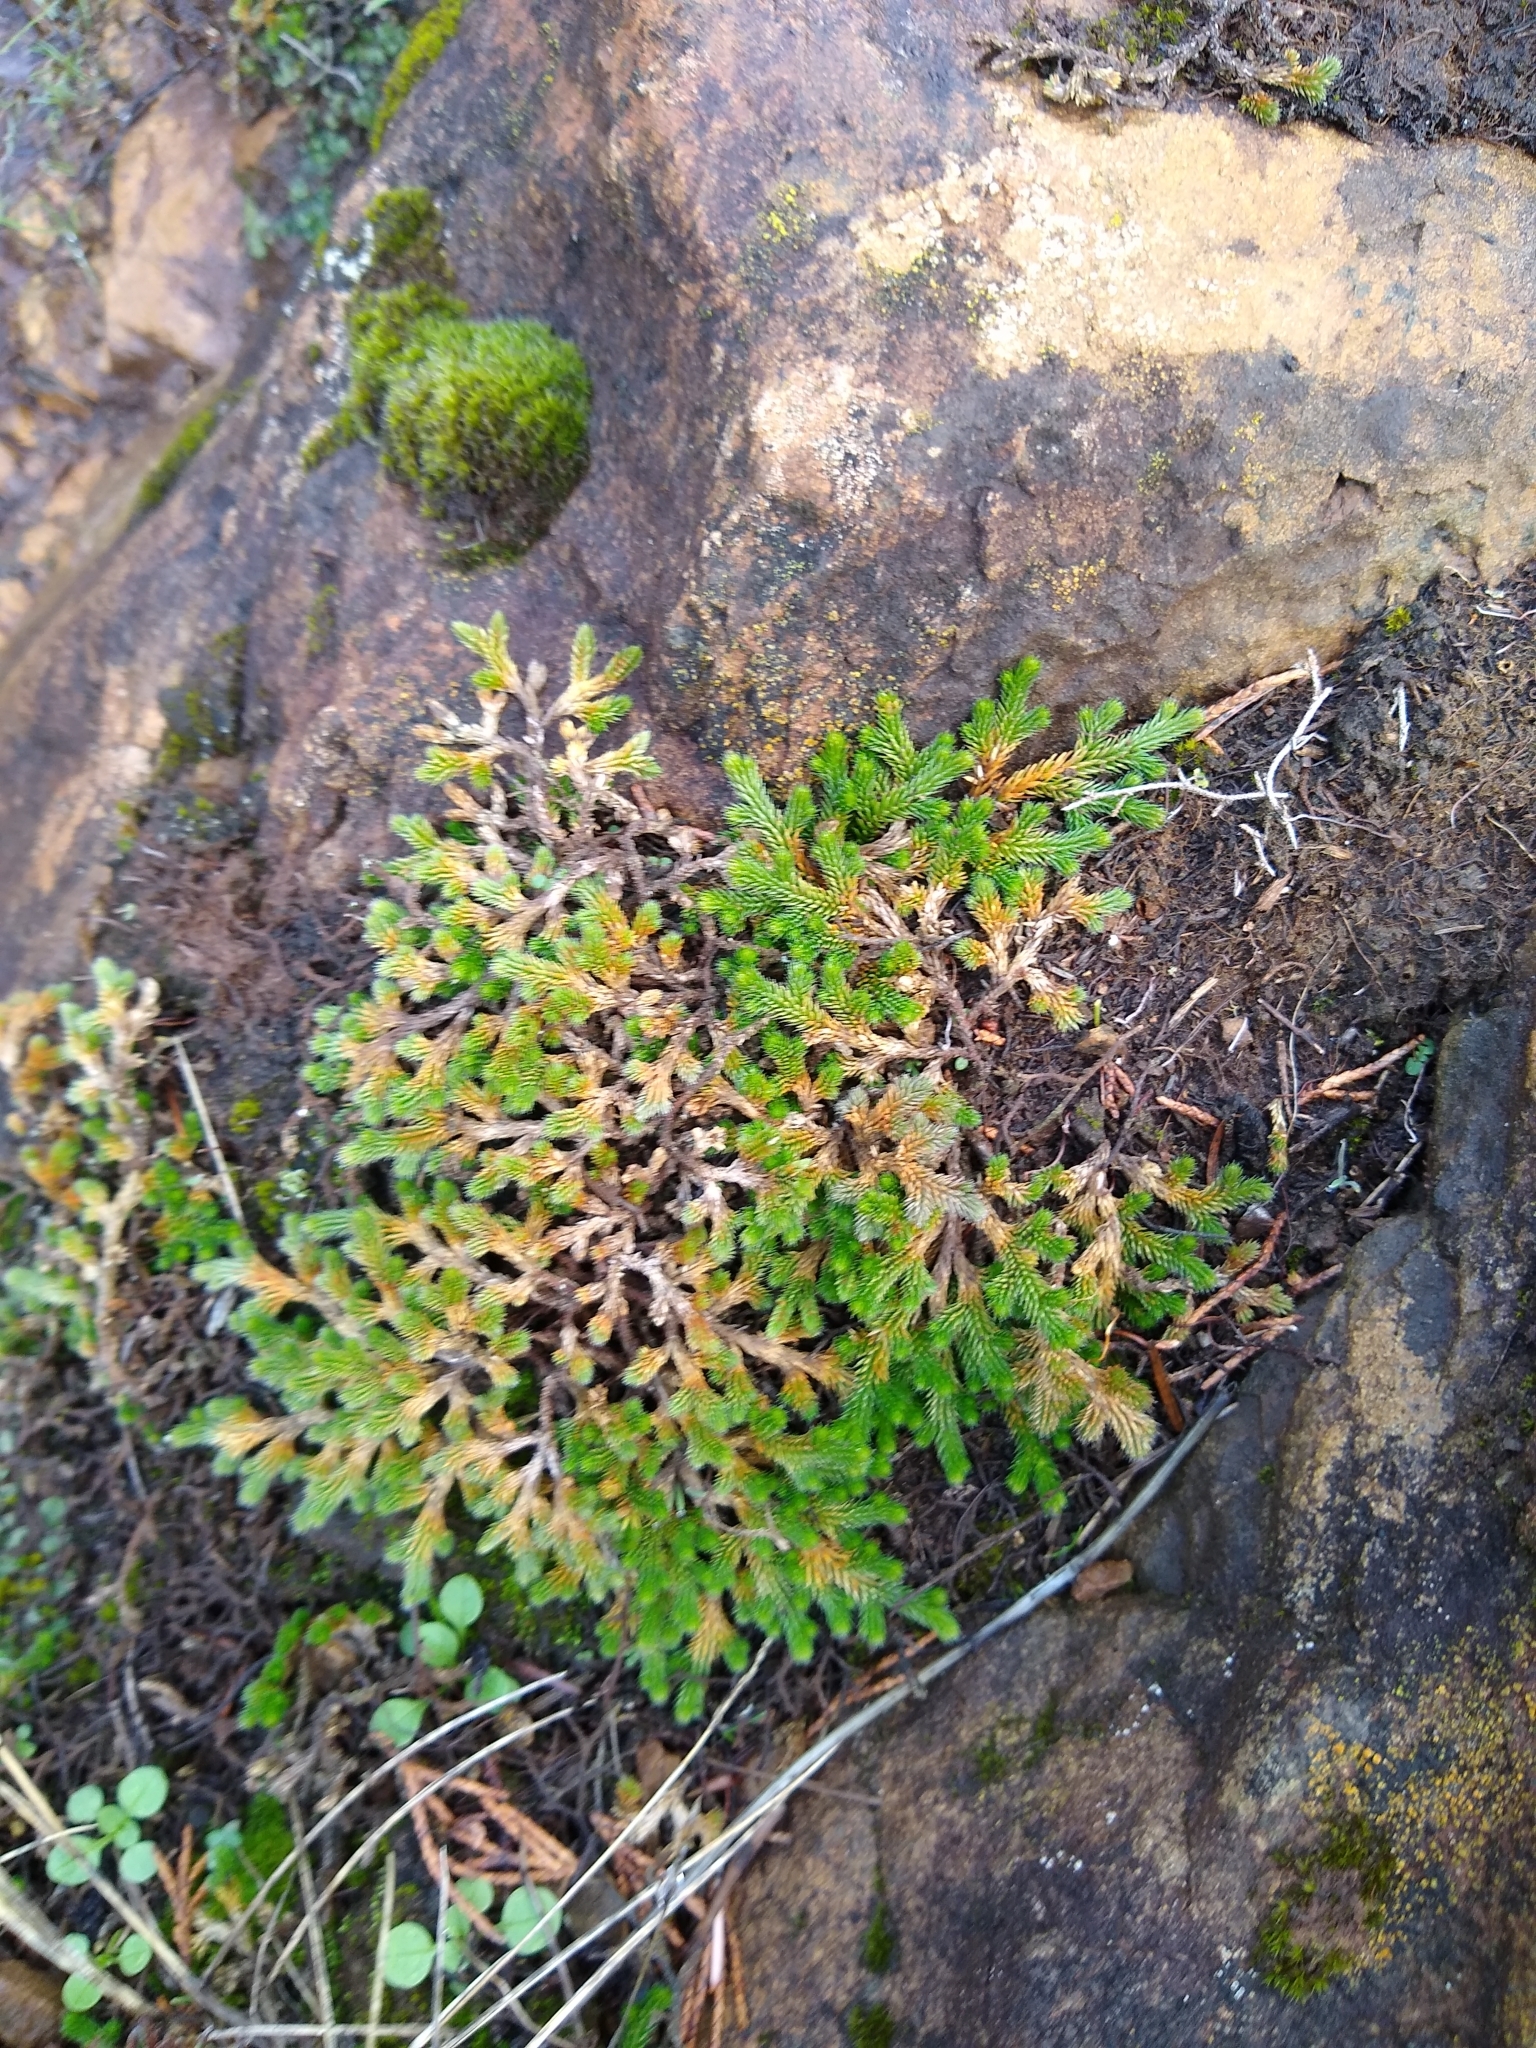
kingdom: Plantae
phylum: Tracheophyta
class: Lycopodiopsida
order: Selaginellales
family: Selaginellaceae
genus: Selaginella
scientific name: Selaginella wallacei
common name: Wallace's selaginella
